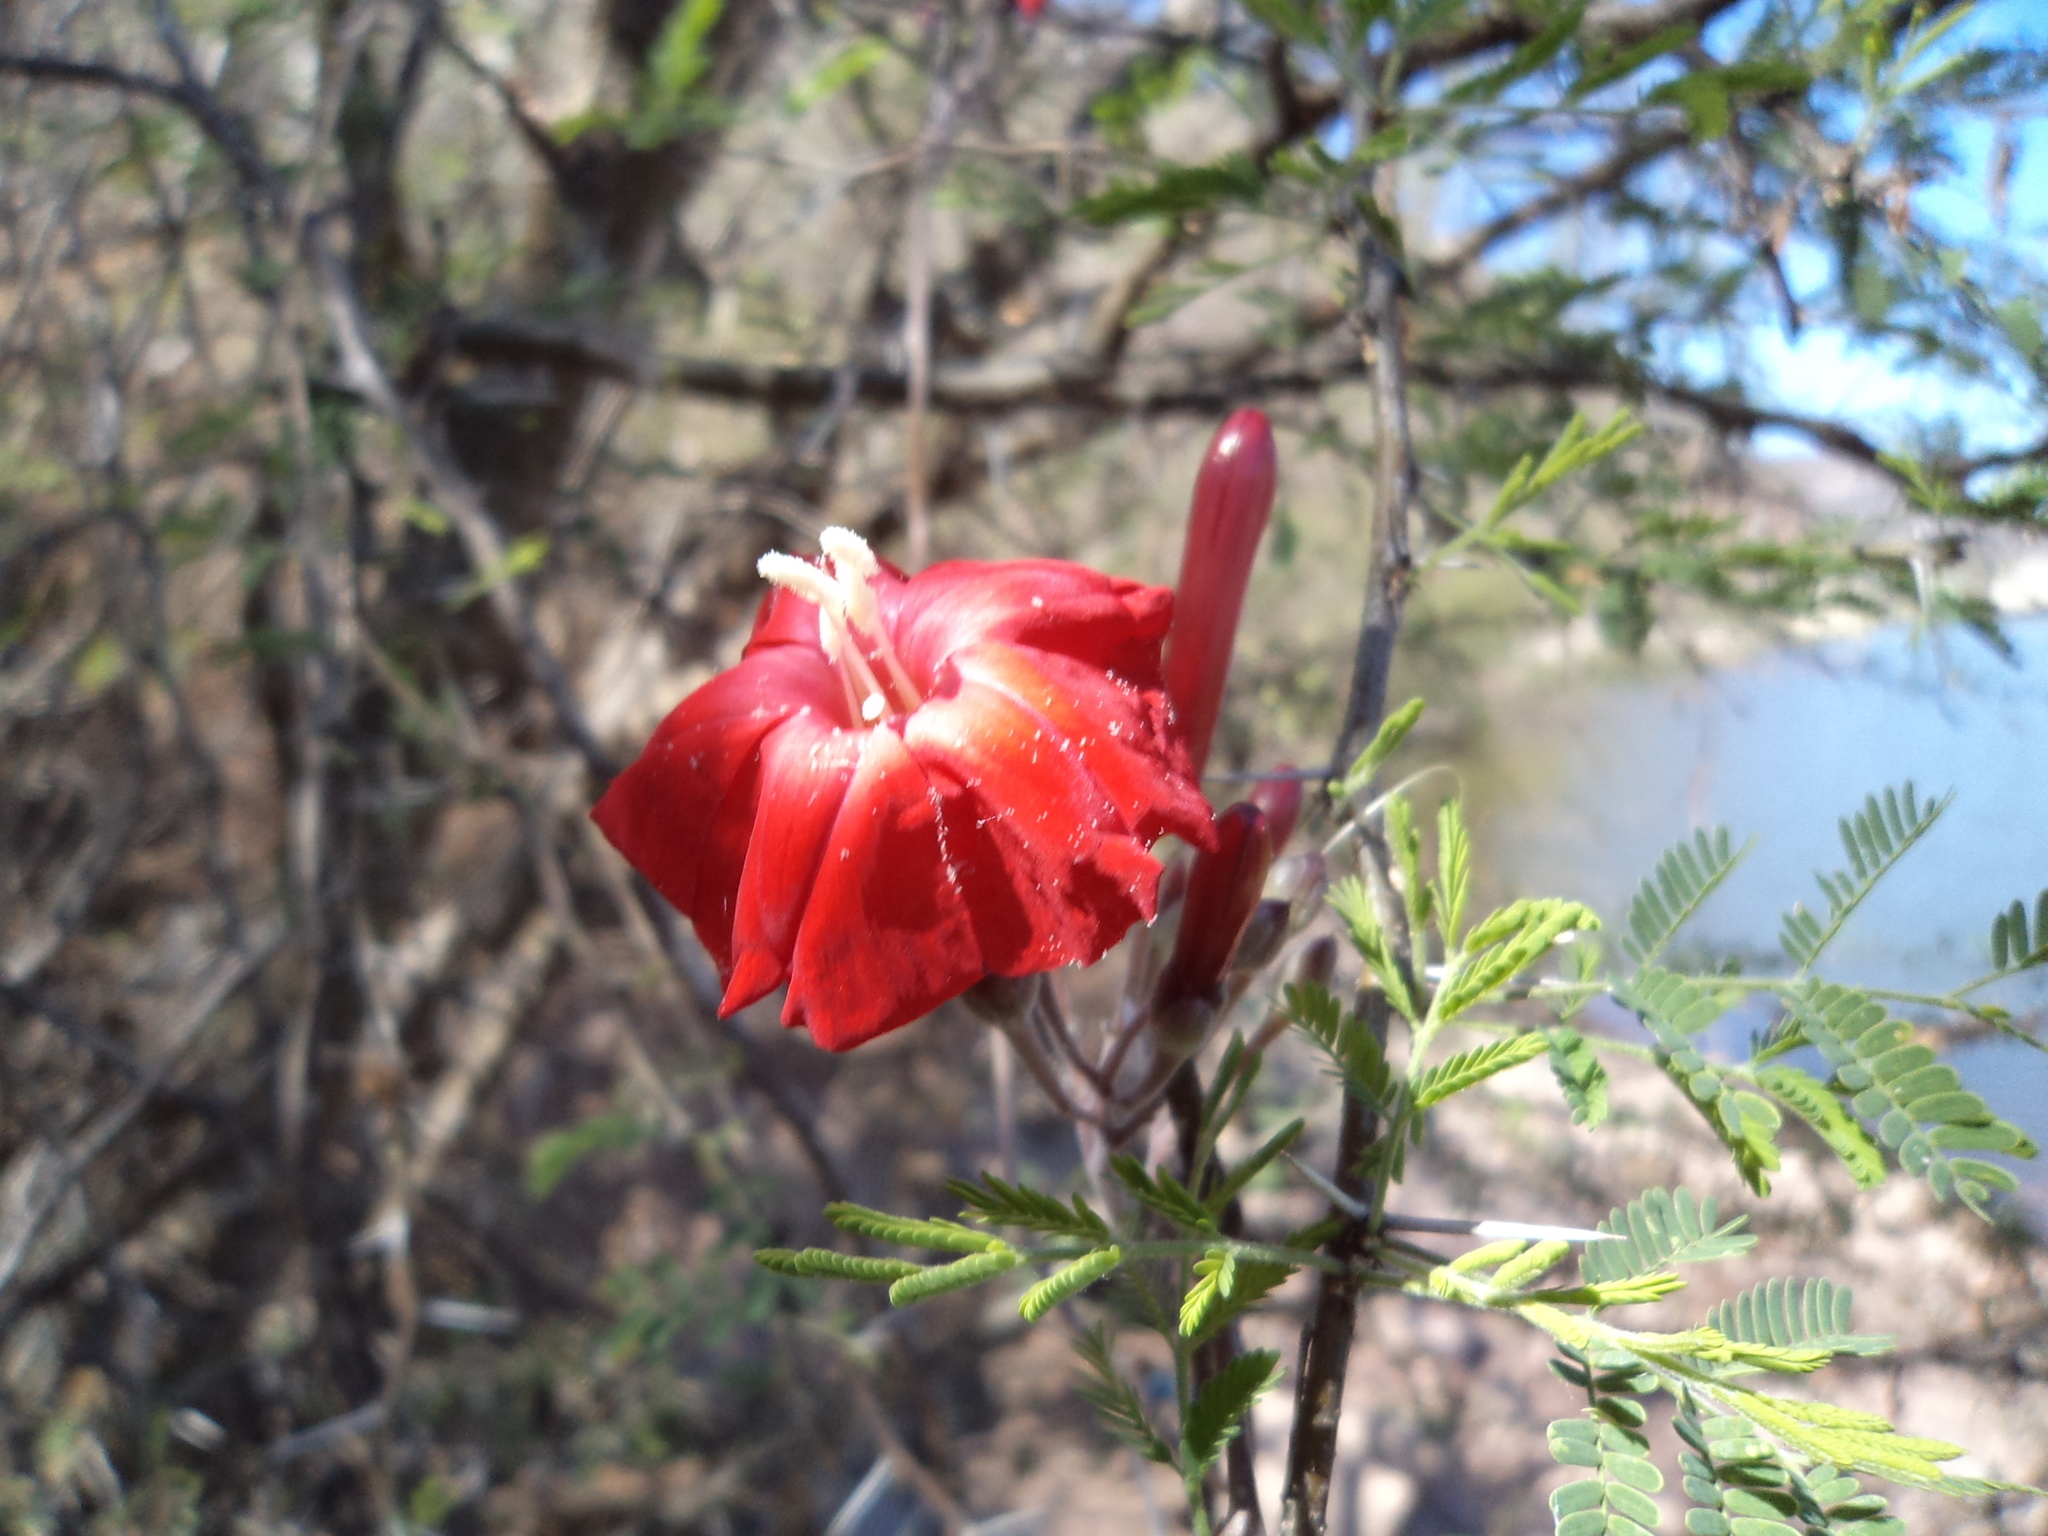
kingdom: Plantae
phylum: Tracheophyta
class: Magnoliopsida
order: Solanales
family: Convolvulaceae
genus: Ipomoea
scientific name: Ipomoea conzattii
